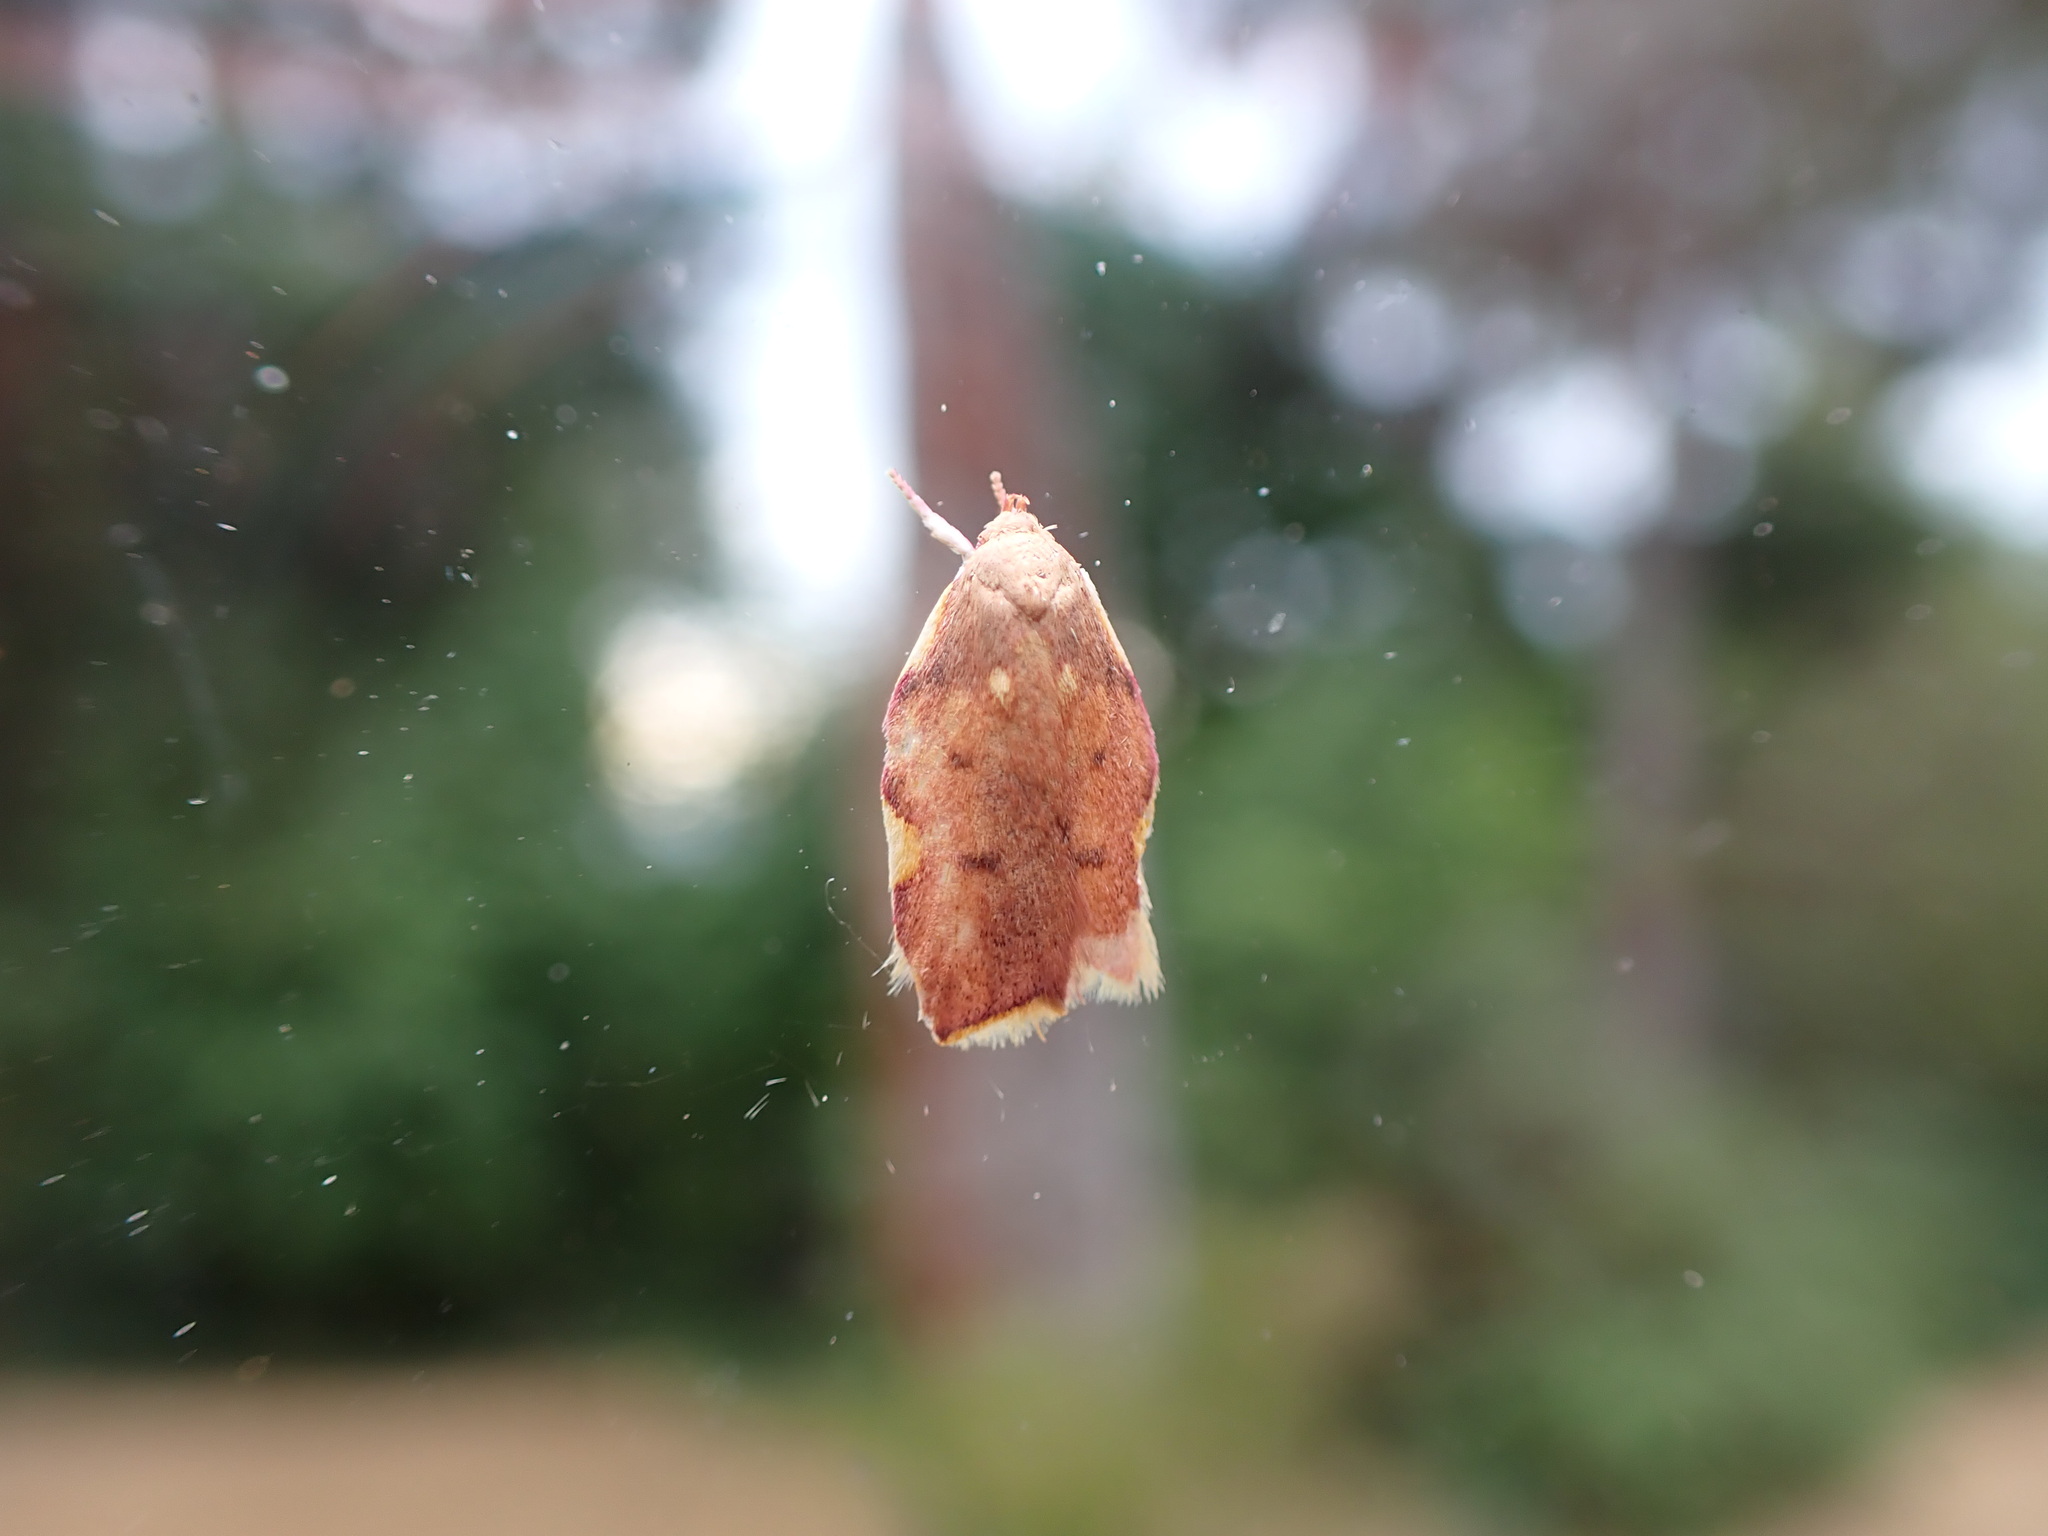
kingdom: Animalia
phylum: Arthropoda
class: Insecta
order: Lepidoptera
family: Peleopodidae
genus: Carcina
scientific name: Carcina quercana
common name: Moth
